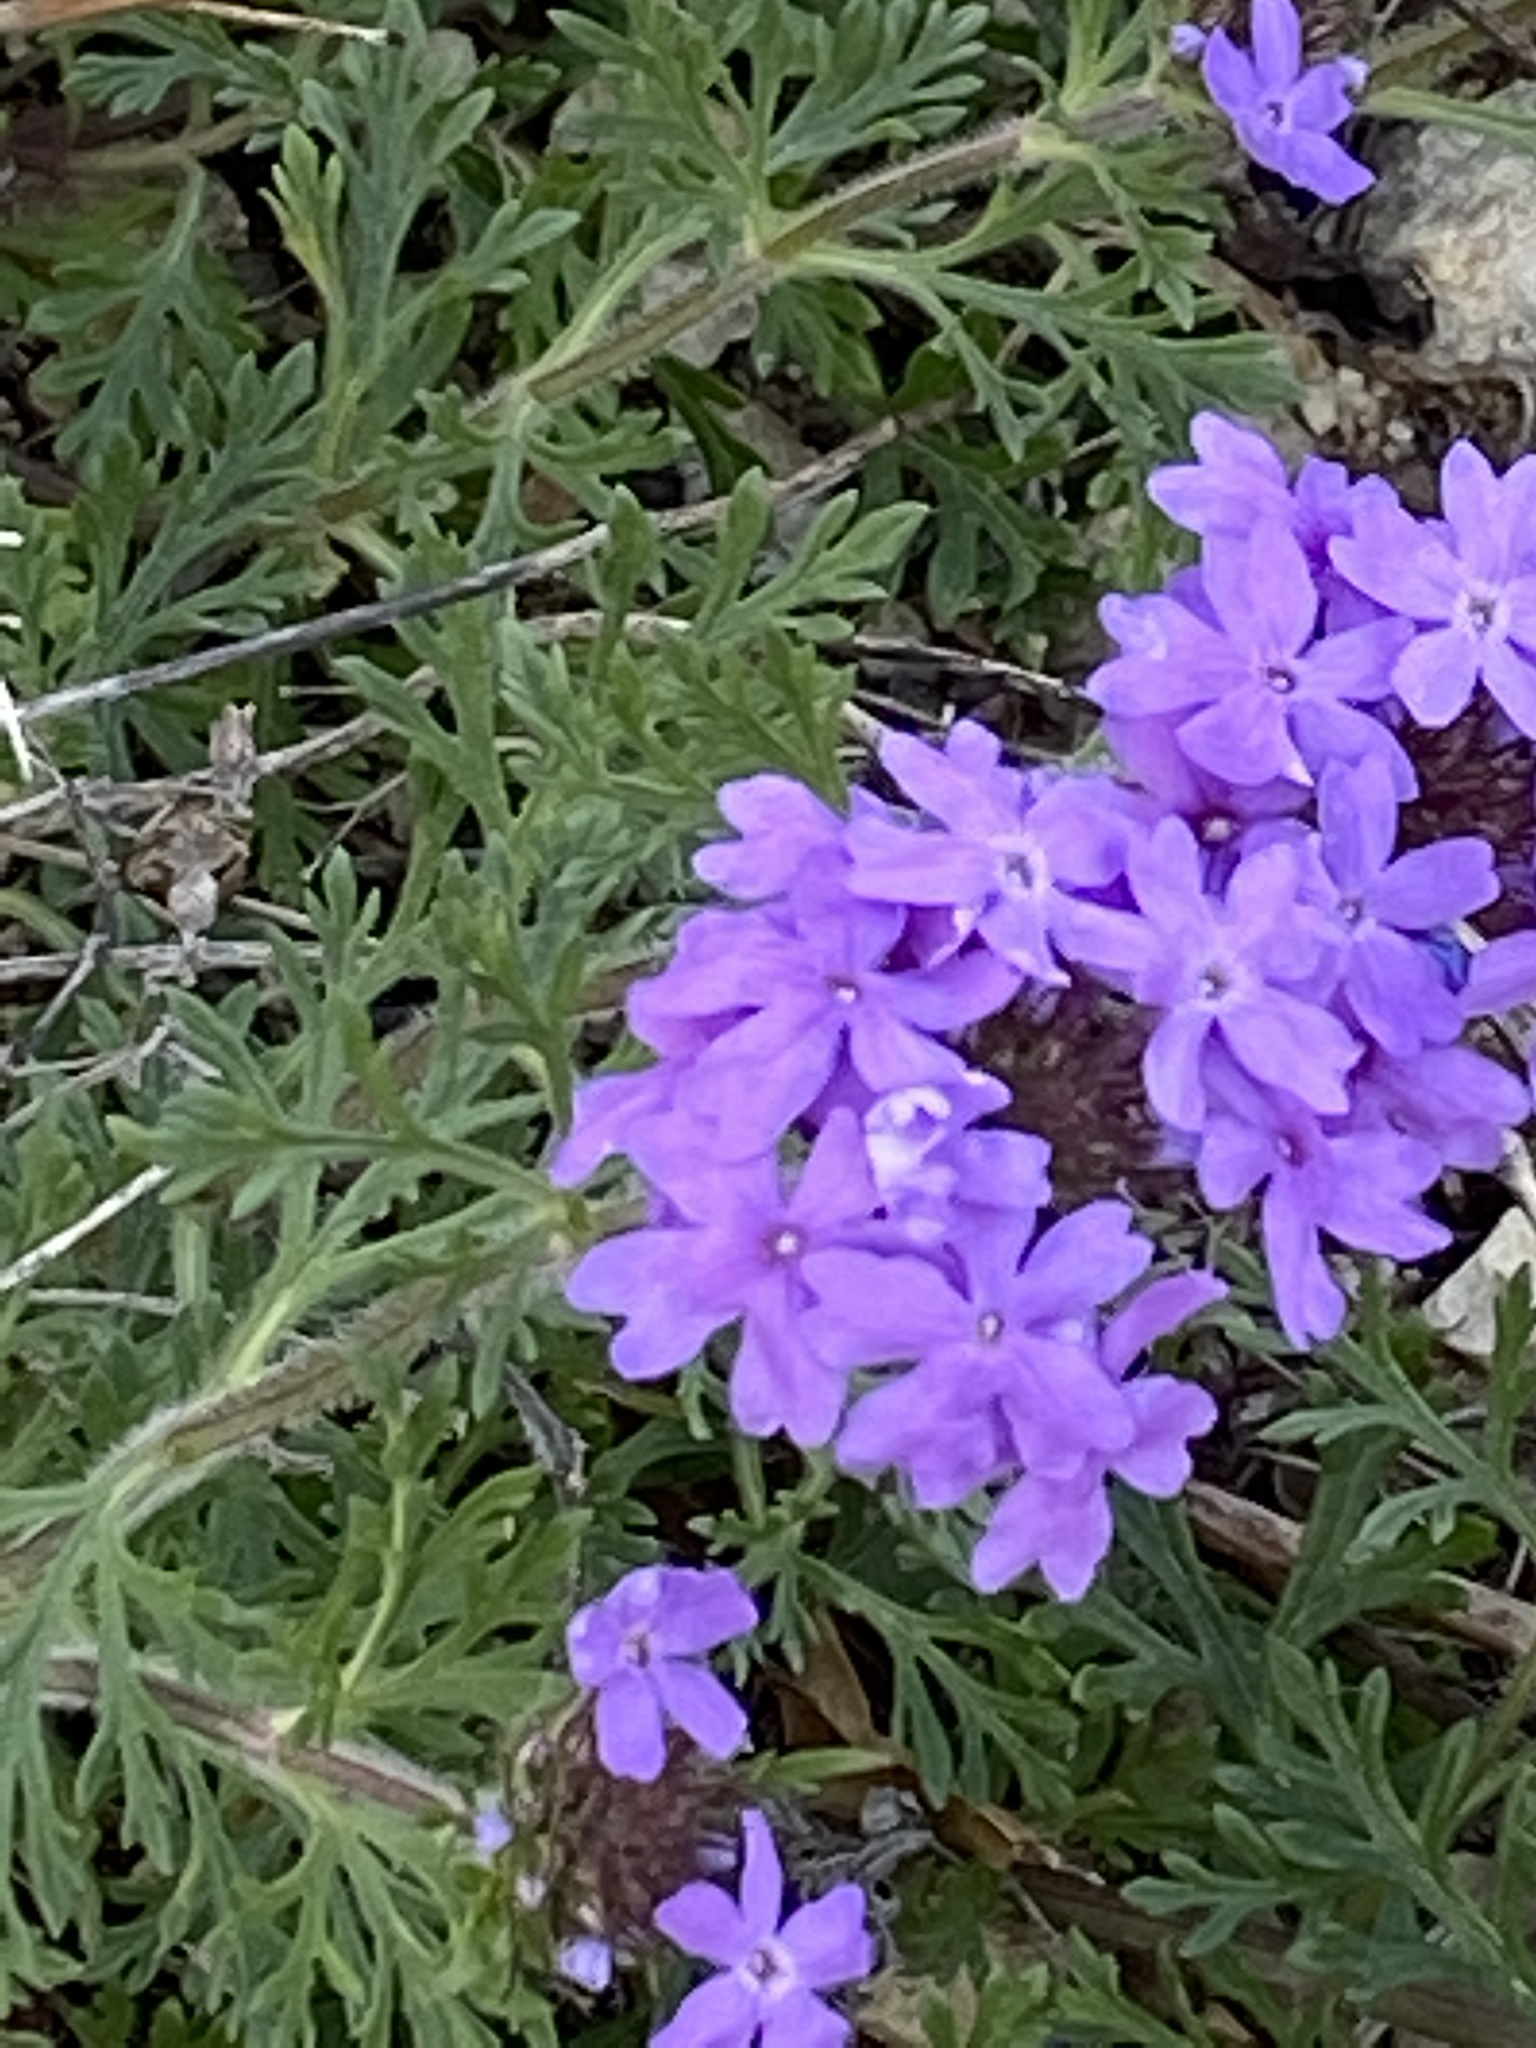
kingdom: Plantae
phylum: Tracheophyta
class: Magnoliopsida
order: Lamiales
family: Verbenaceae
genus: Verbena
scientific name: Verbena bipinnatifida
